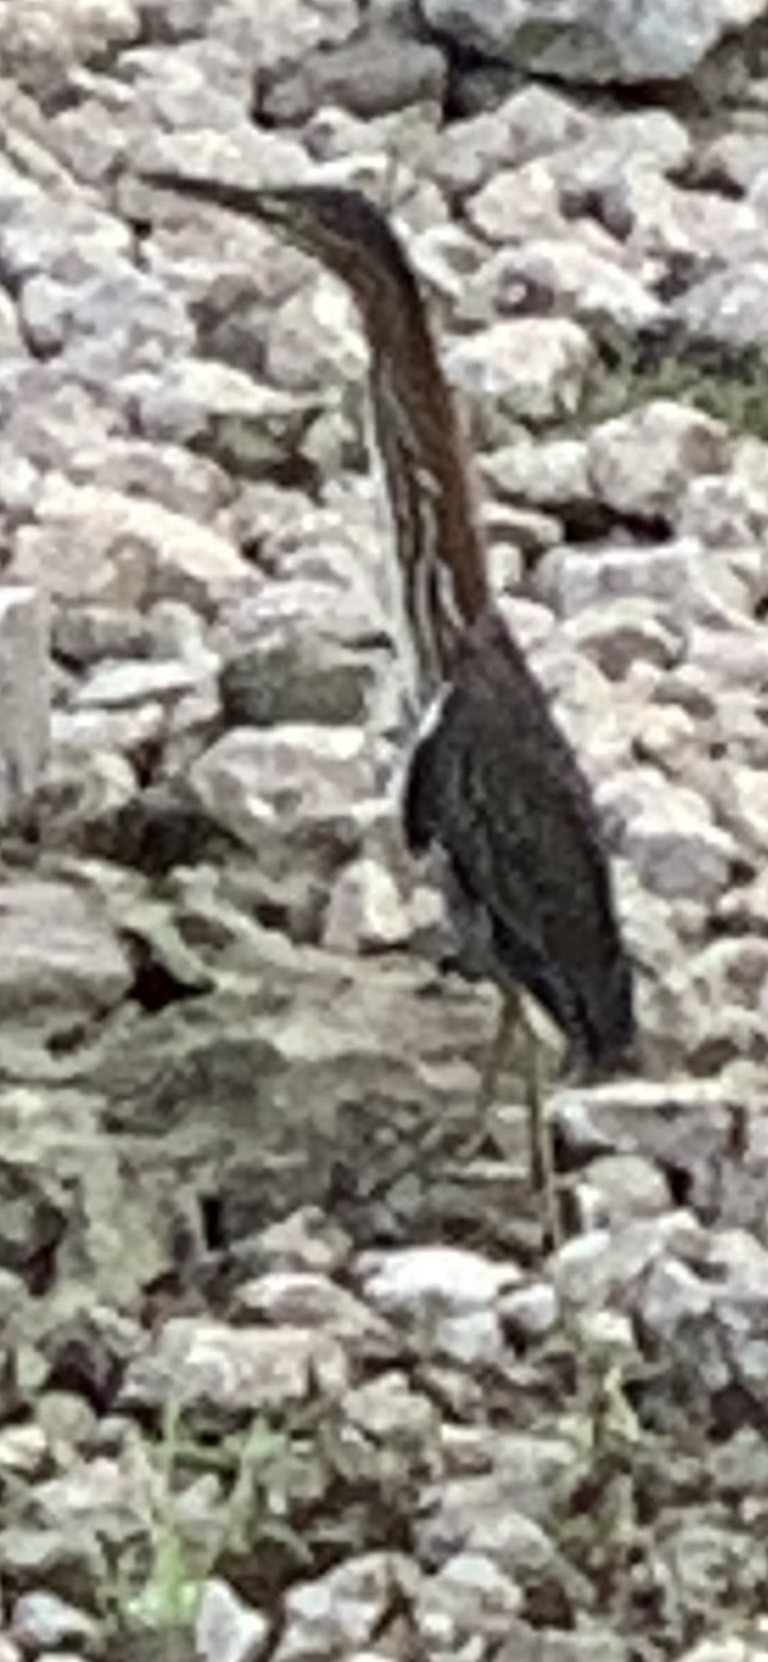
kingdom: Animalia
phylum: Chordata
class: Aves
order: Pelecaniformes
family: Ardeidae
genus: Butorides
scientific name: Butorides virescens
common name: Green heron
